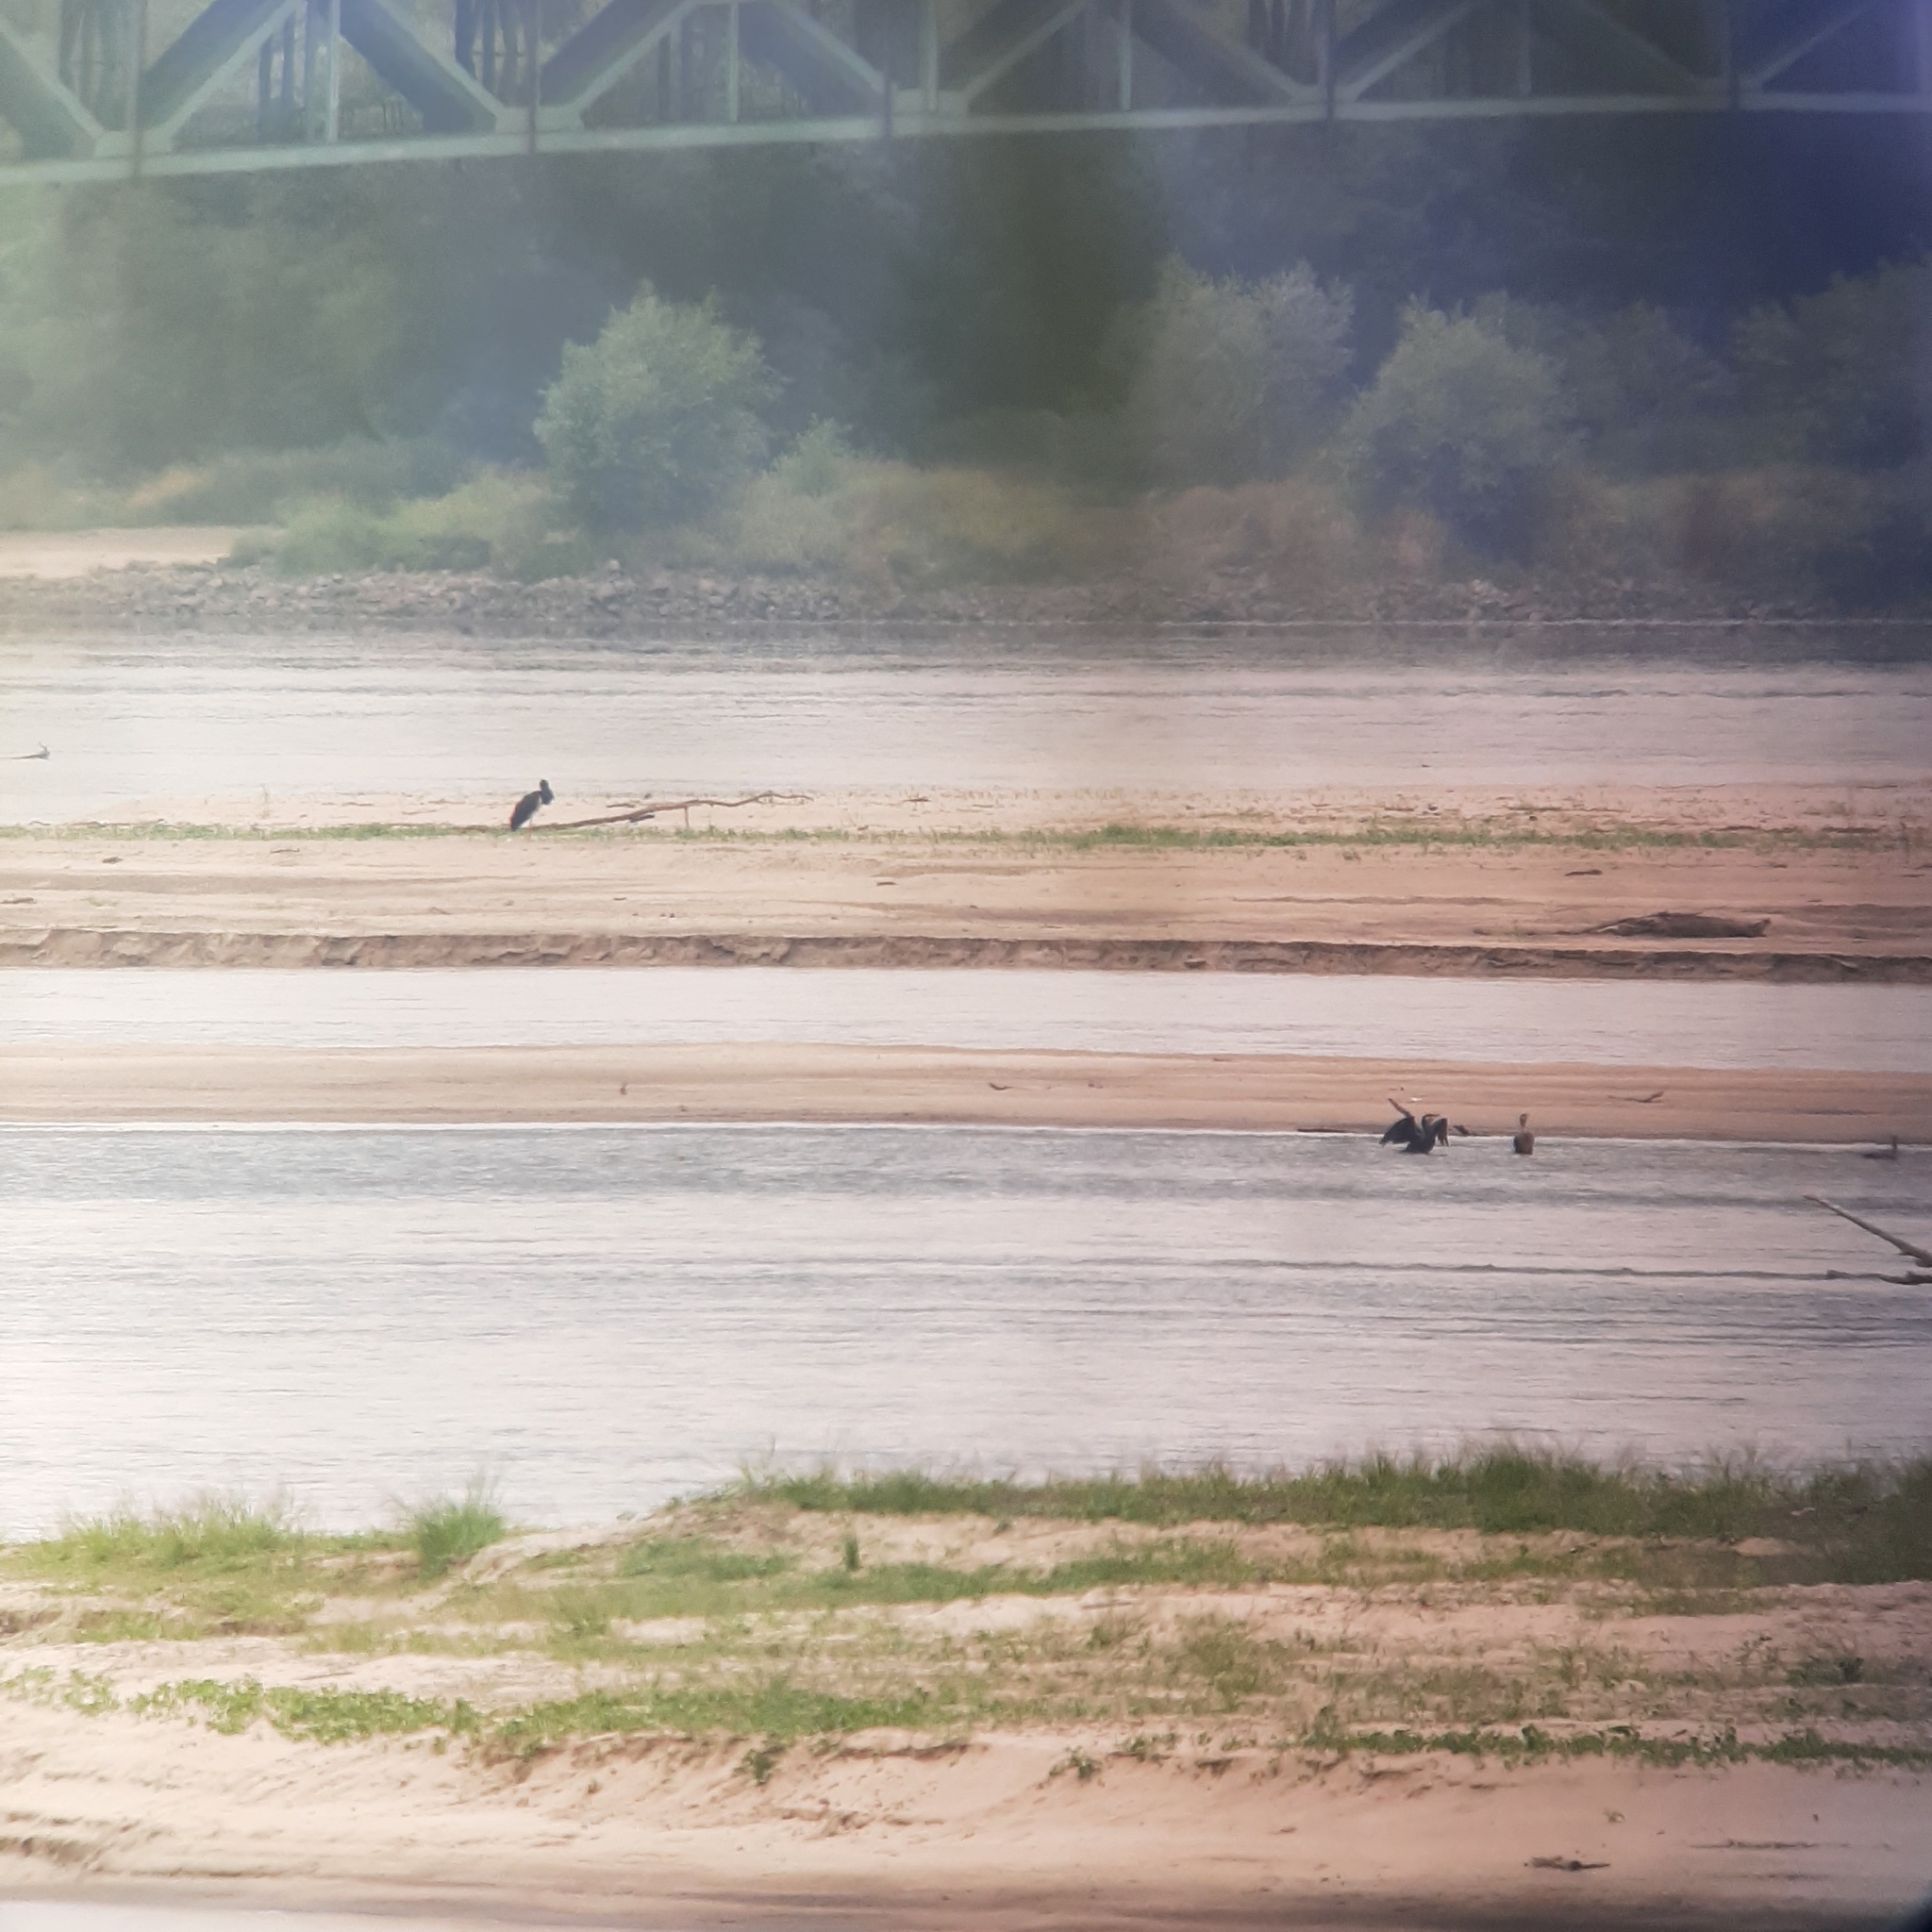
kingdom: Animalia
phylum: Chordata
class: Aves
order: Suliformes
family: Phalacrocoracidae
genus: Phalacrocorax
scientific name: Phalacrocorax carbo
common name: Great cormorant
